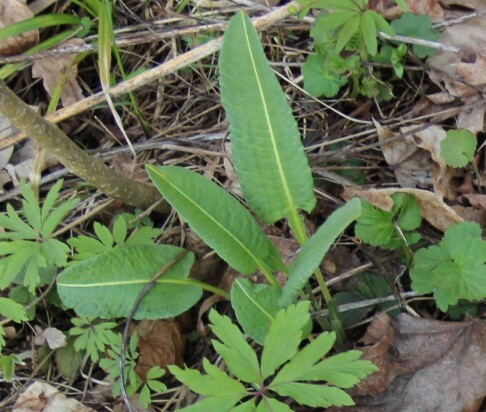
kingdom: Plantae
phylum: Tracheophyta
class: Magnoliopsida
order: Caryophyllales
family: Polygonaceae
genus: Bistorta
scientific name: Bistorta officinalis
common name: Common bistort
